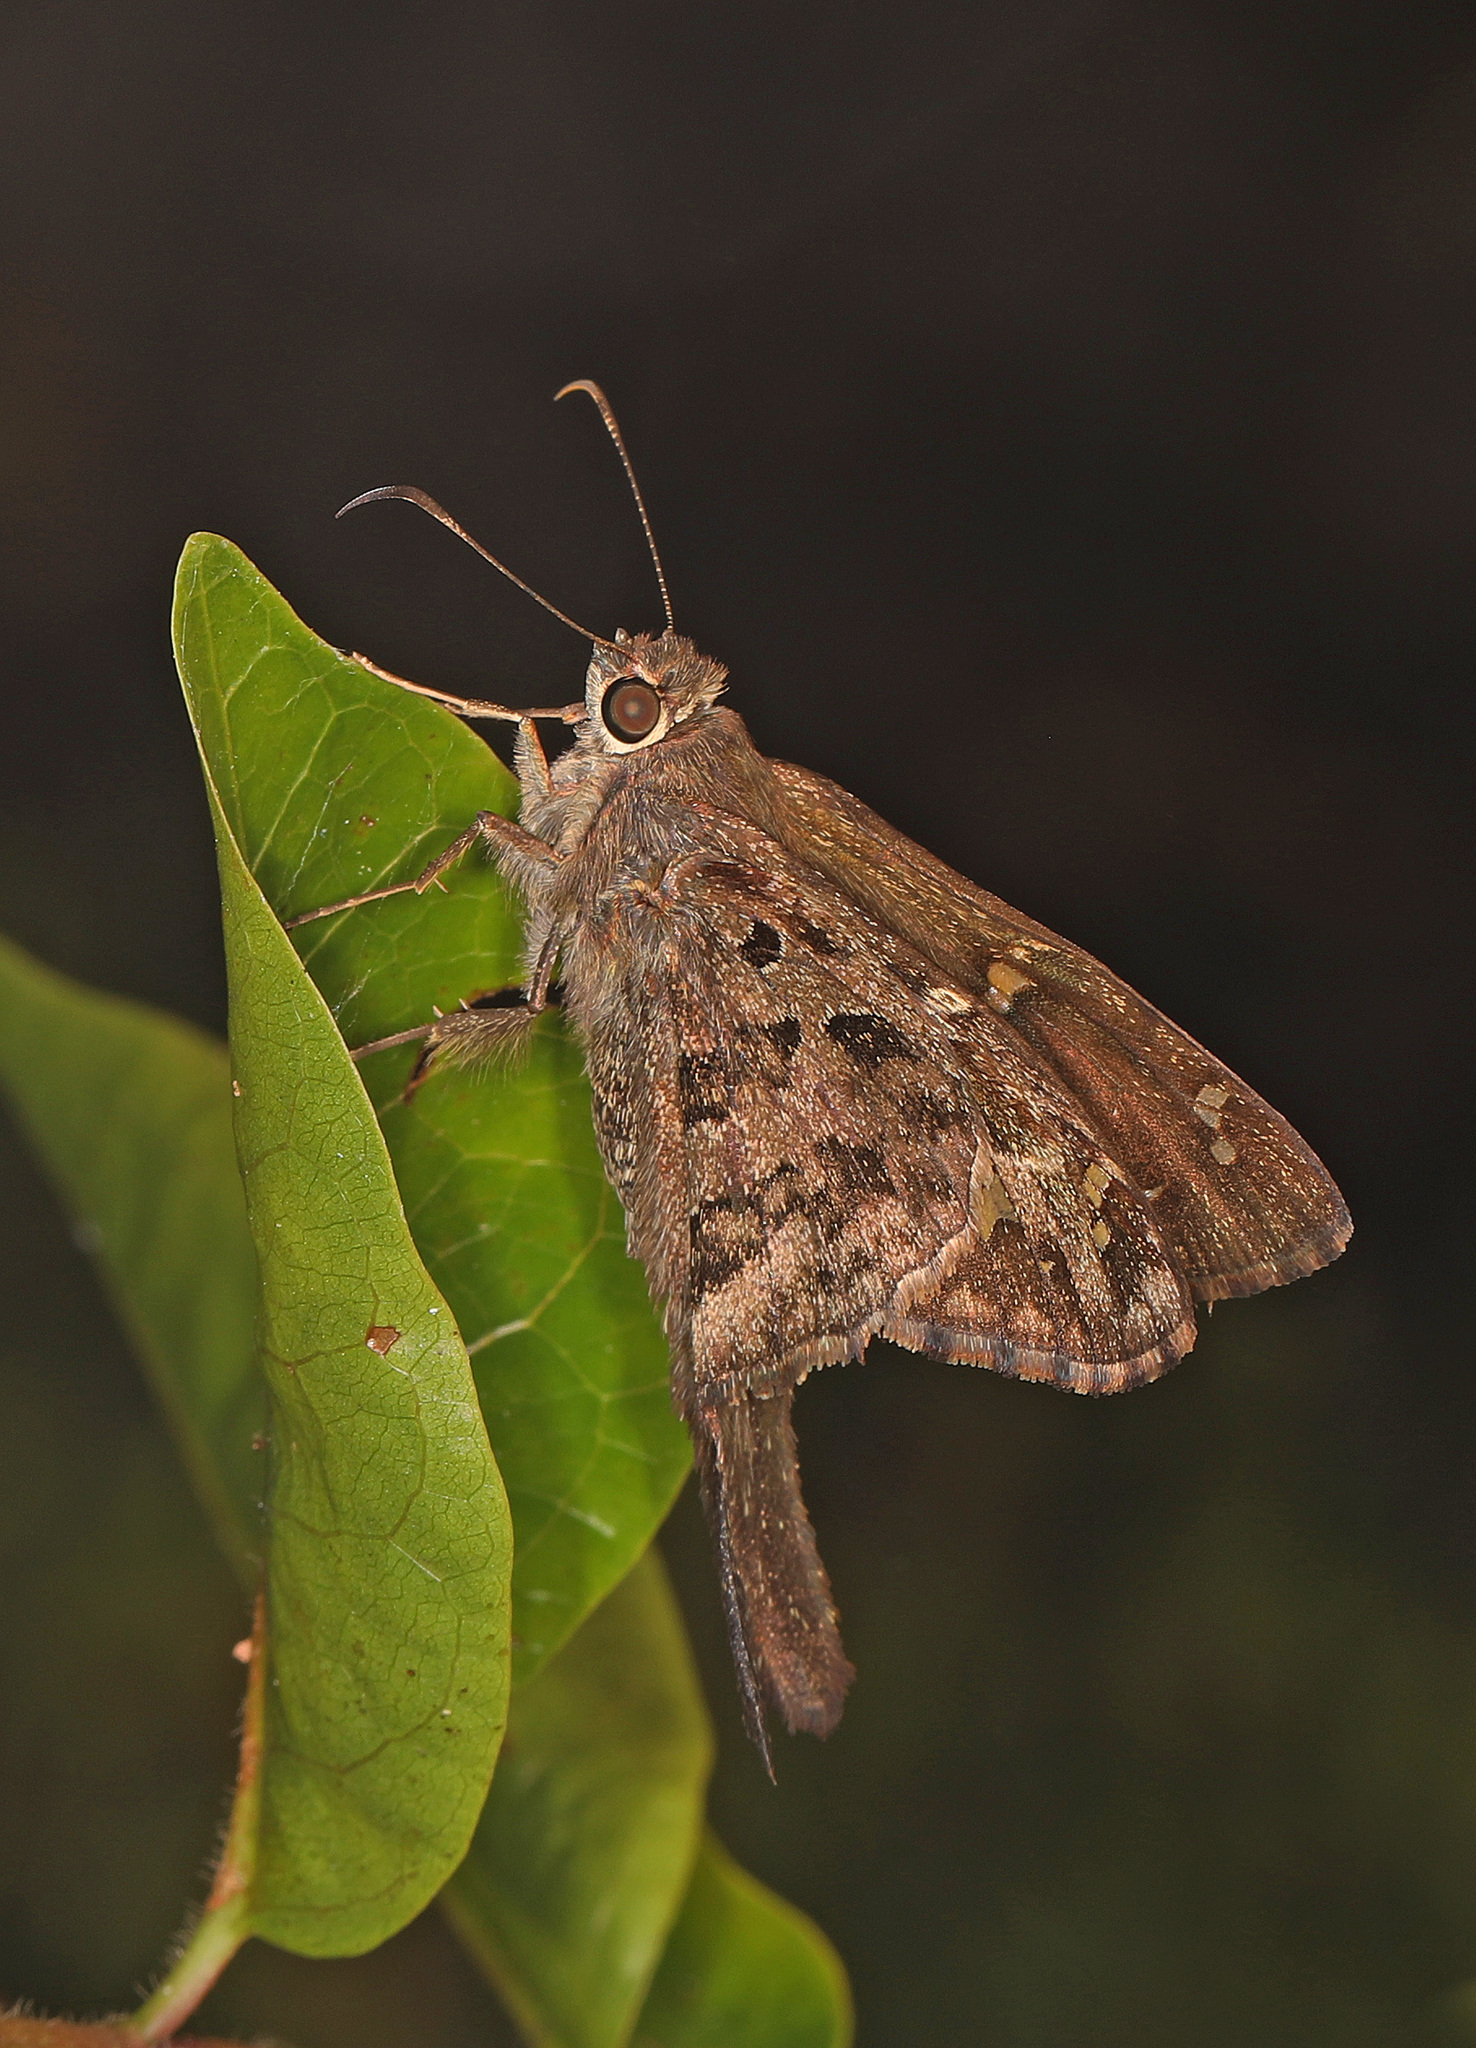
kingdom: Animalia
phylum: Arthropoda
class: Insecta
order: Lepidoptera
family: Hesperiidae
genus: Thorybes
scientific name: Thorybes
